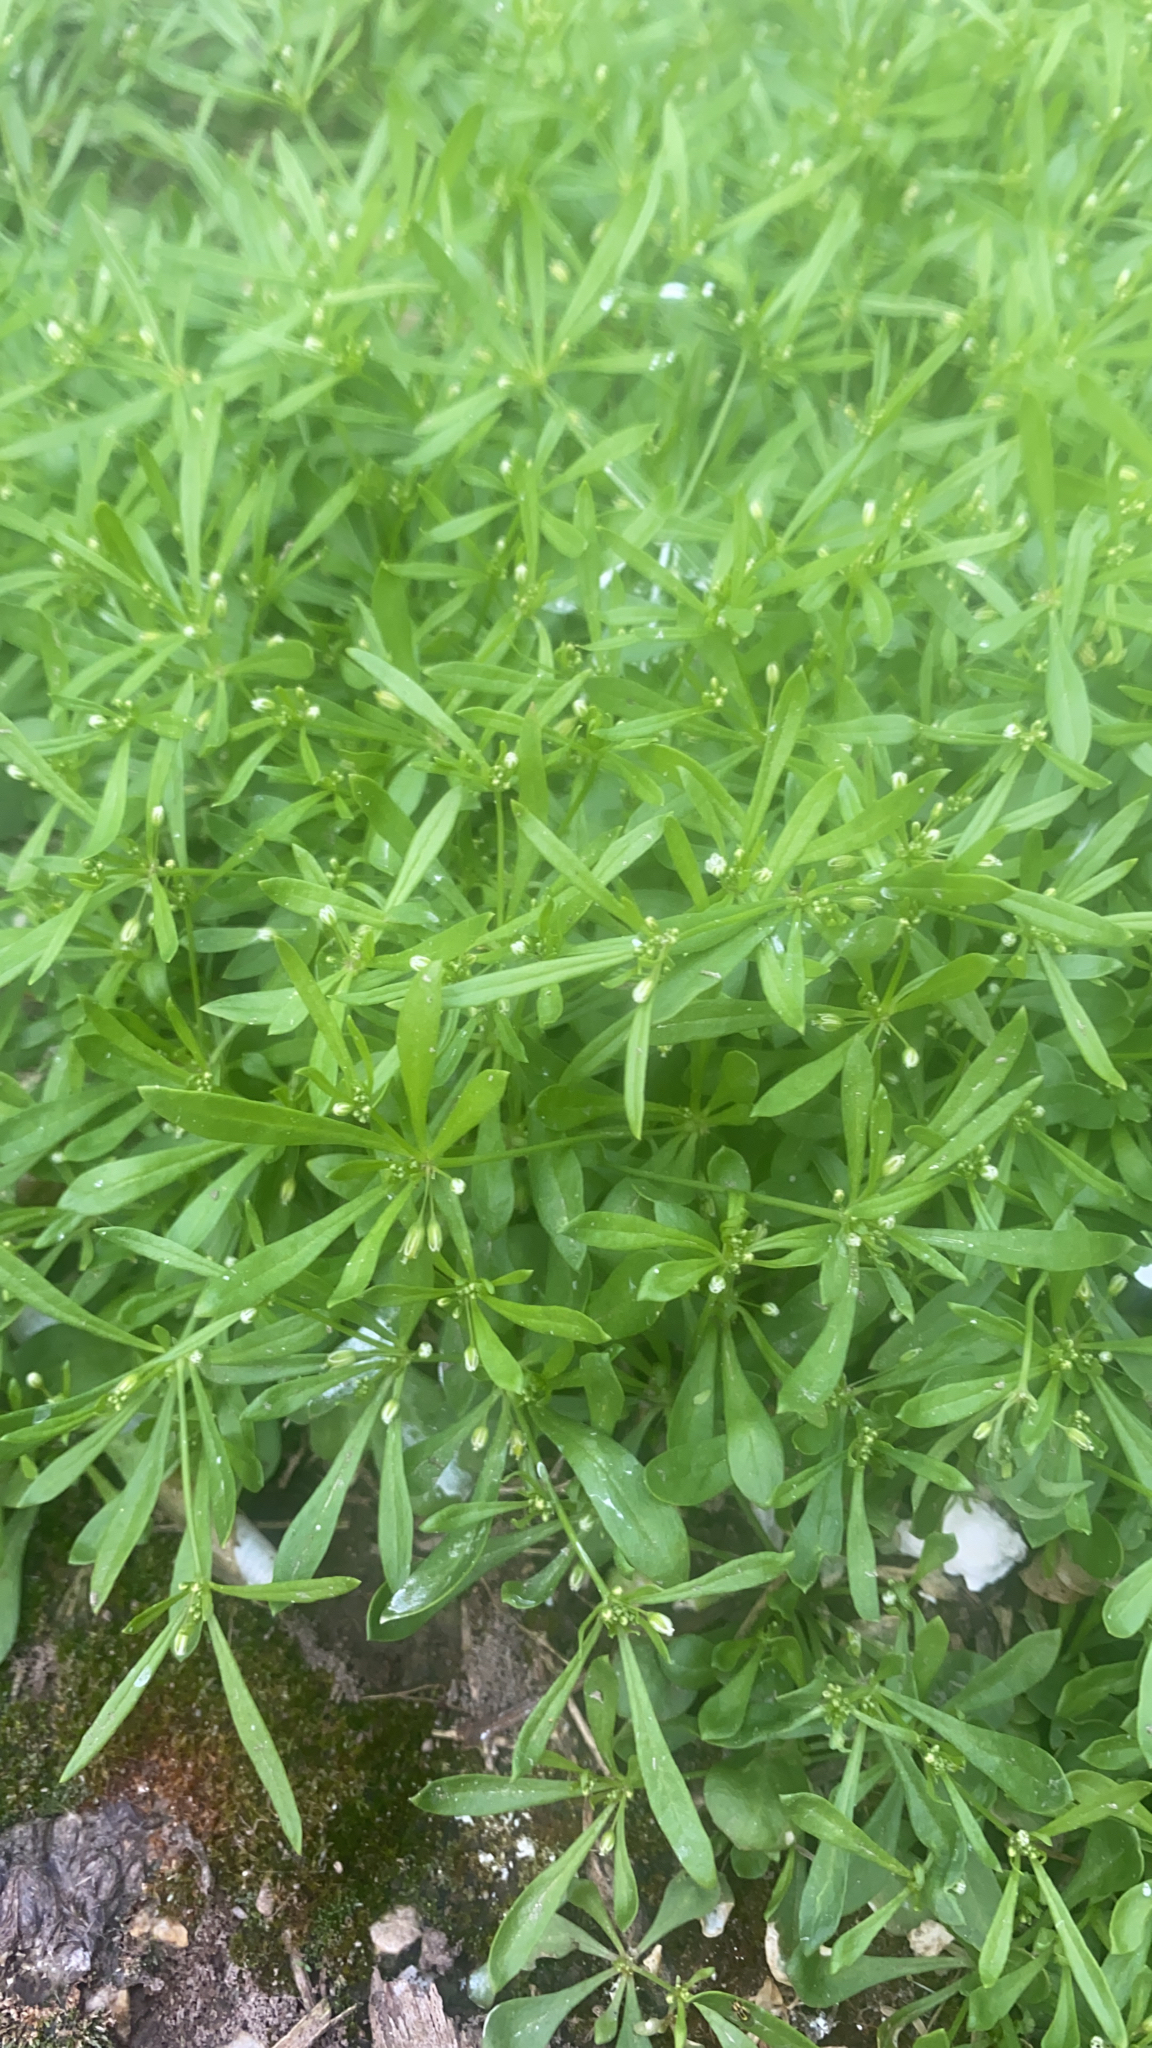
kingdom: Plantae
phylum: Tracheophyta
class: Magnoliopsida
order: Caryophyllales
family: Molluginaceae
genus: Mollugo
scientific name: Mollugo verticillata
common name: Green carpetweed
